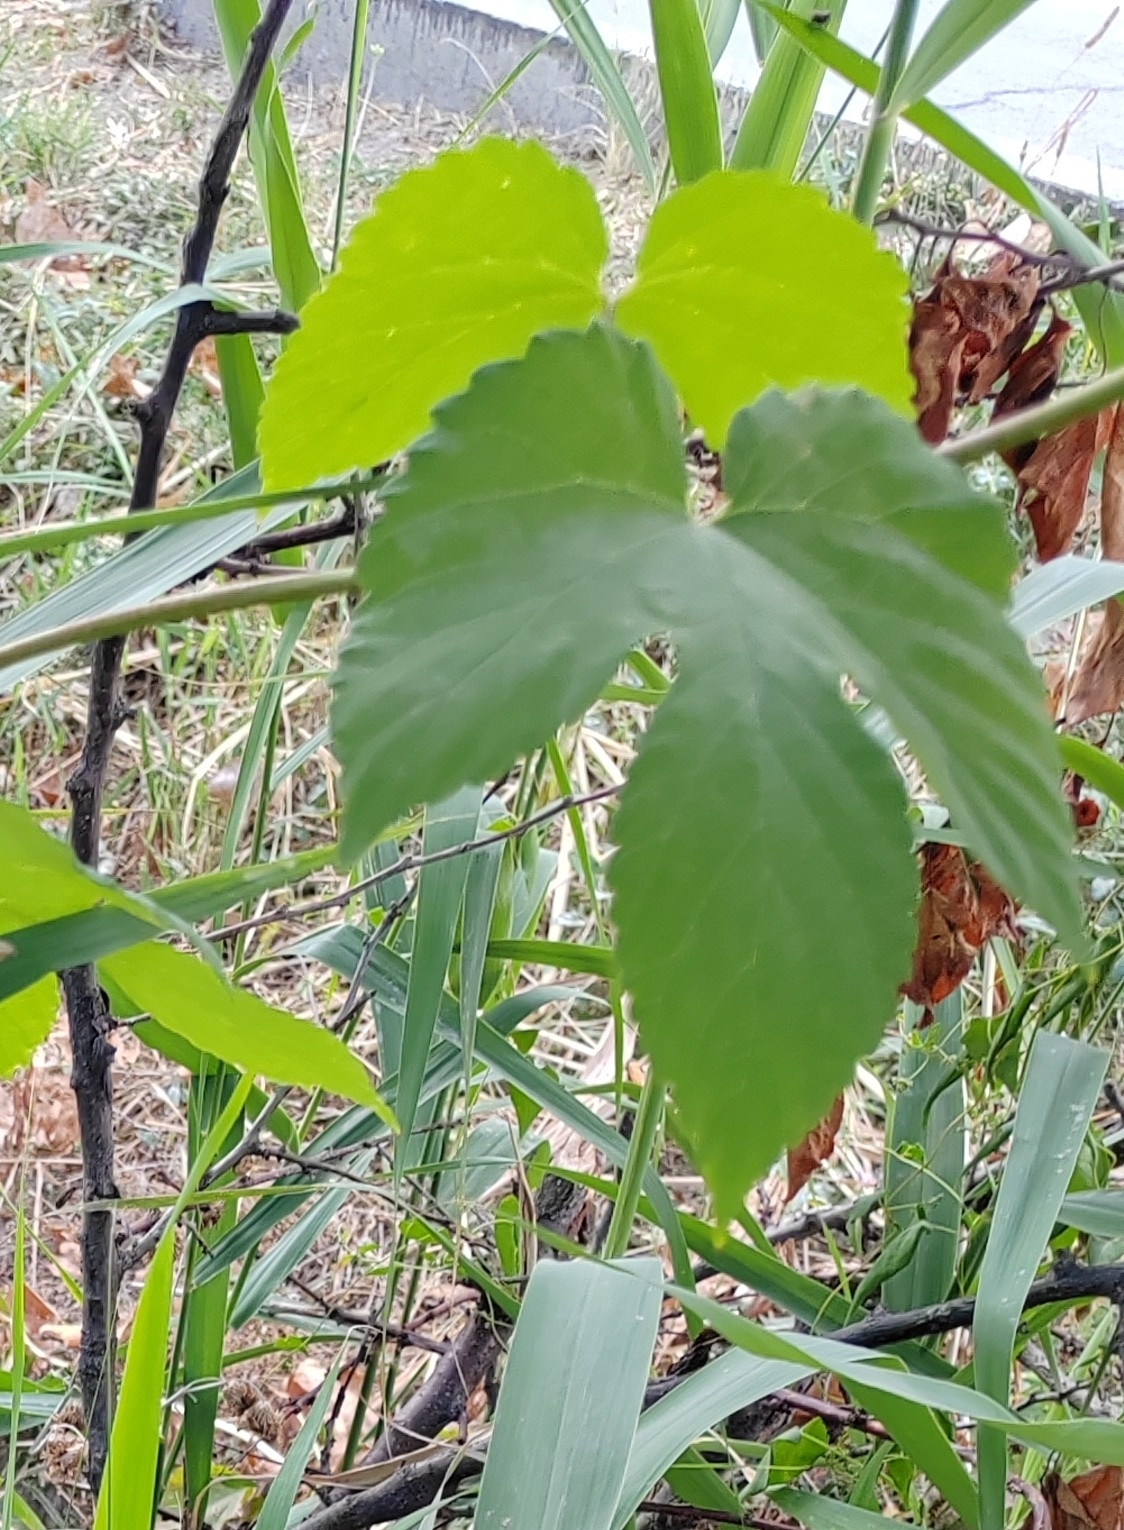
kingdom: Plantae
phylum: Tracheophyta
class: Magnoliopsida
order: Rosales
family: Cannabaceae
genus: Humulus
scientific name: Humulus lupulus
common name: Hop
